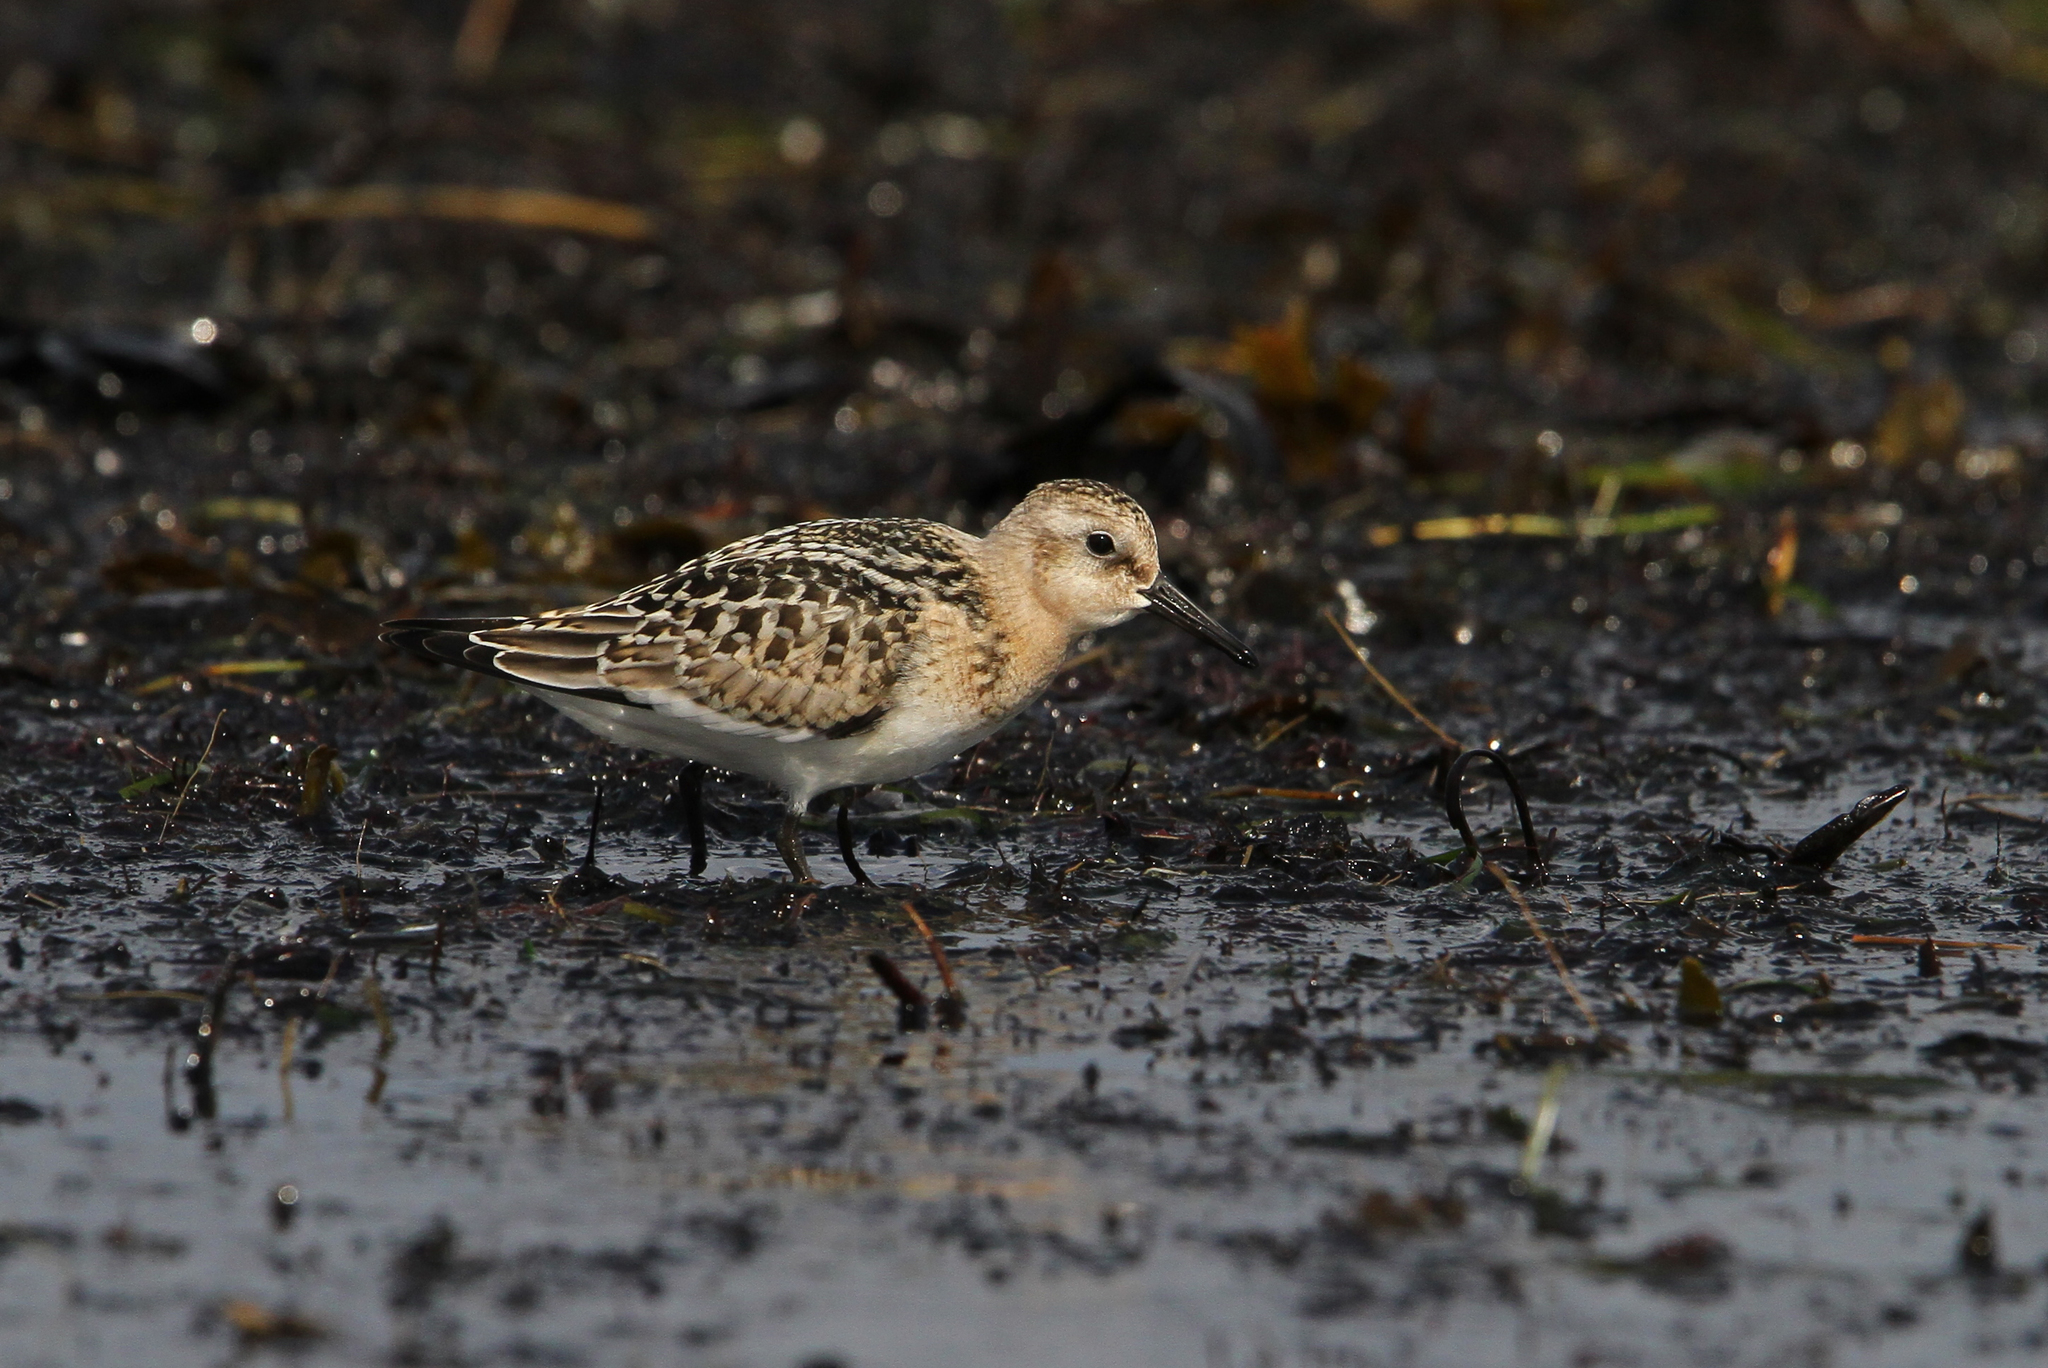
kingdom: Animalia
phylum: Chordata
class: Aves
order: Charadriiformes
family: Scolopacidae
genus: Calidris
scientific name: Calidris alba
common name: Sanderling
